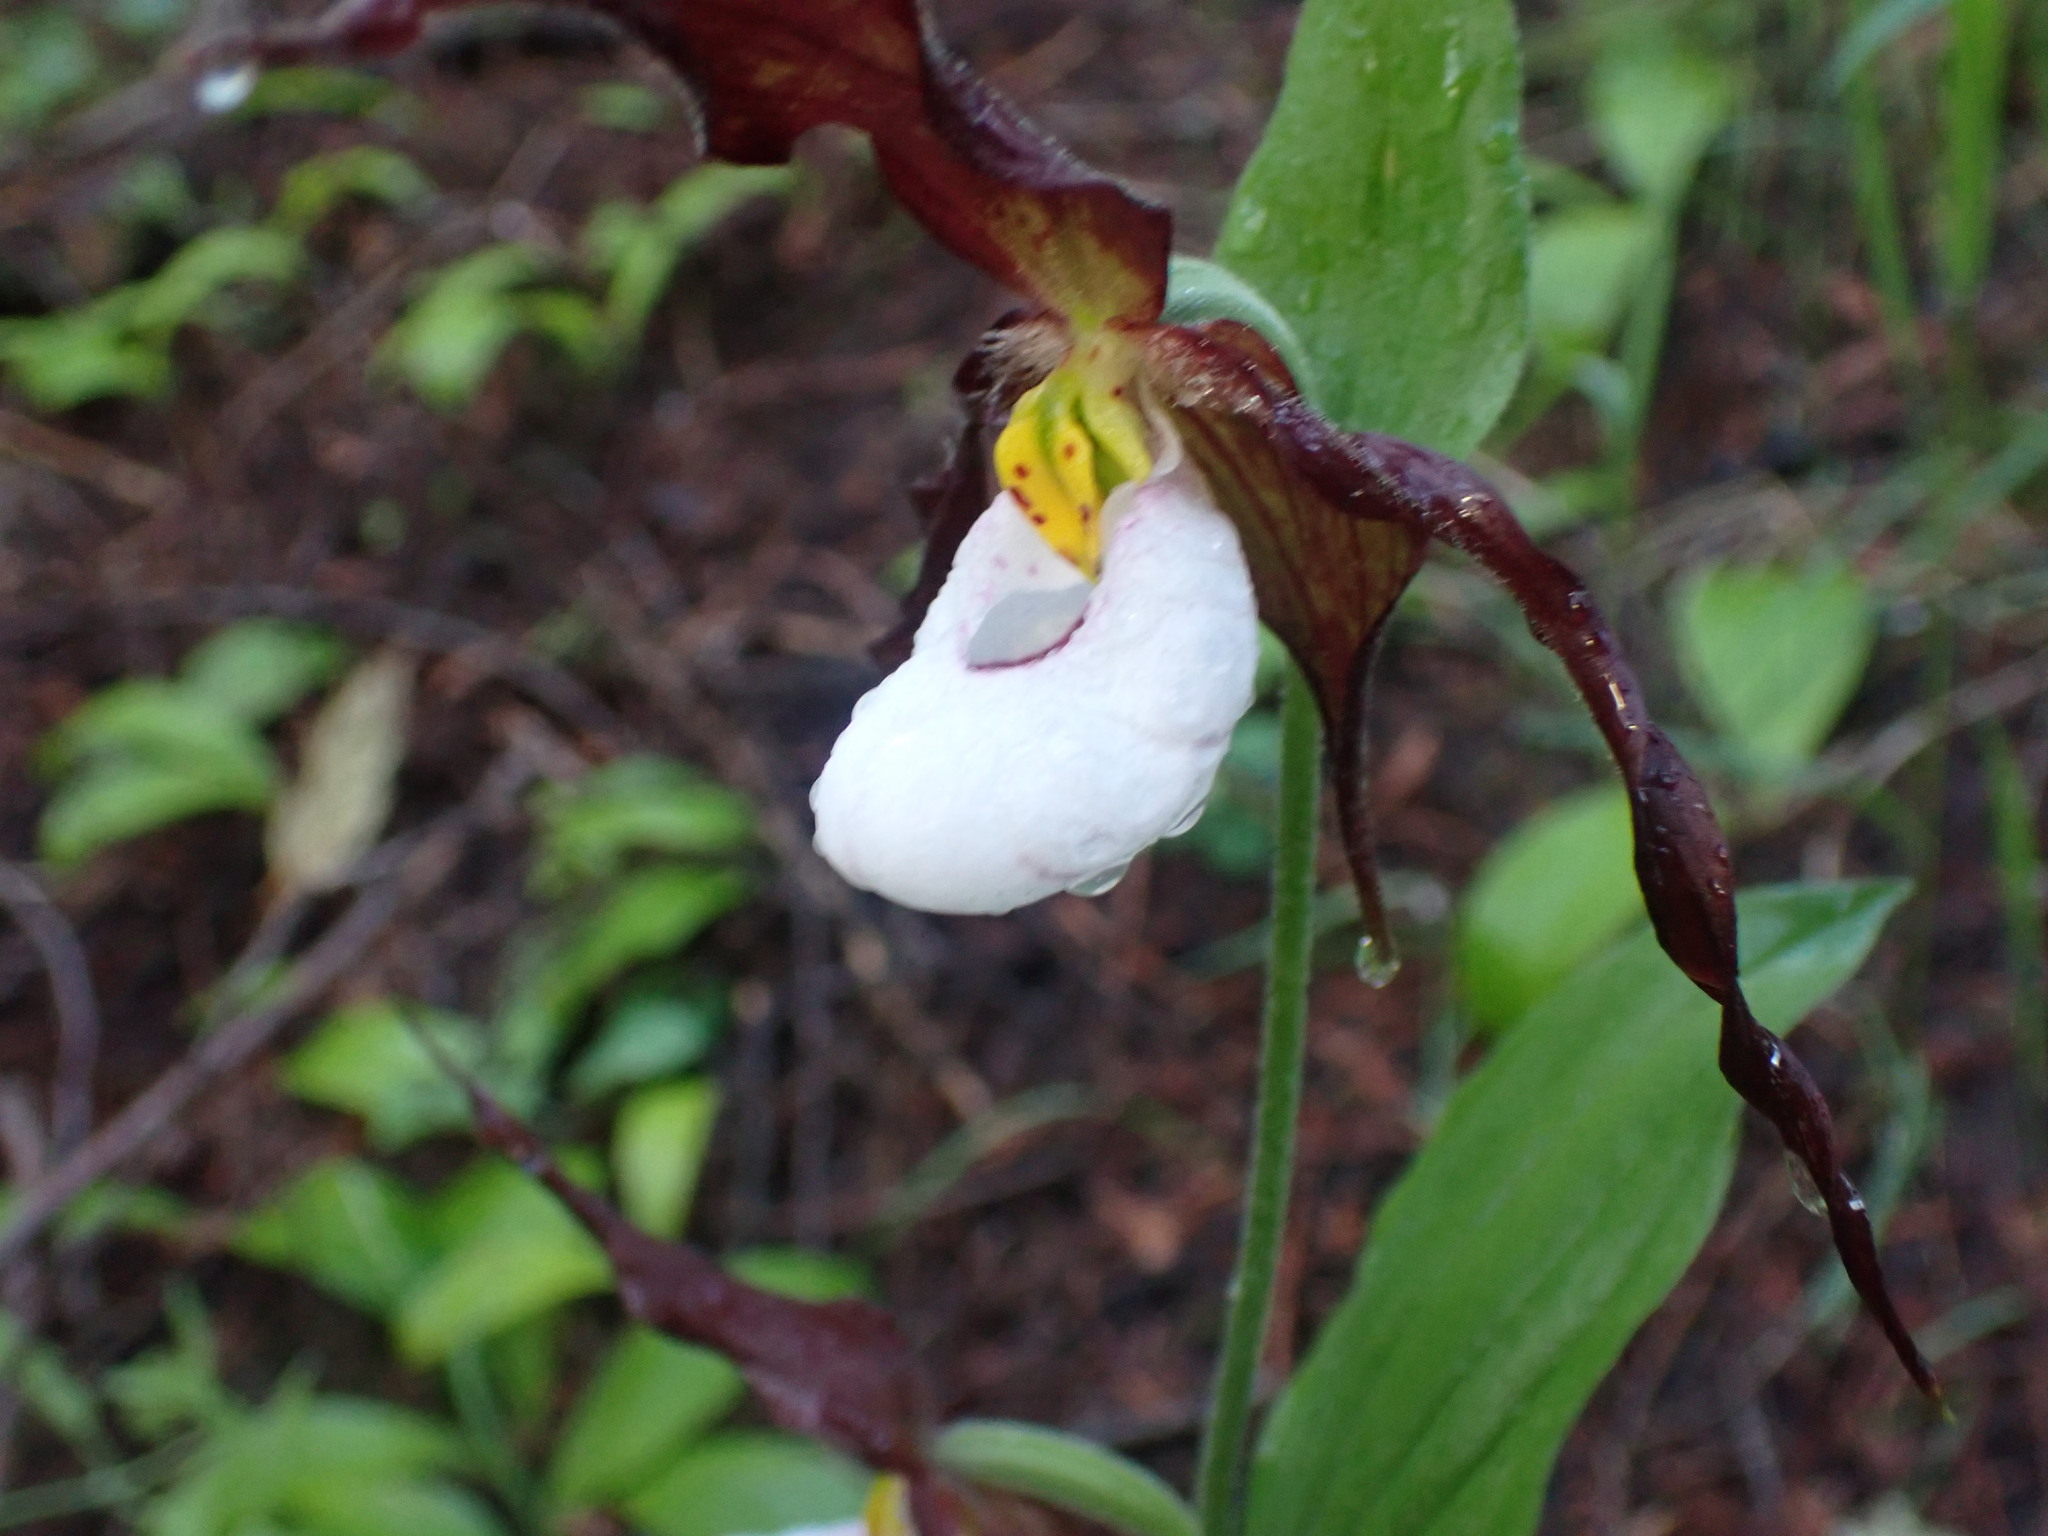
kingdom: Plantae
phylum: Tracheophyta
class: Liliopsida
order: Asparagales
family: Orchidaceae
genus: Cypripedium
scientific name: Cypripedium montanum
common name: Mountain lady's-slipper
